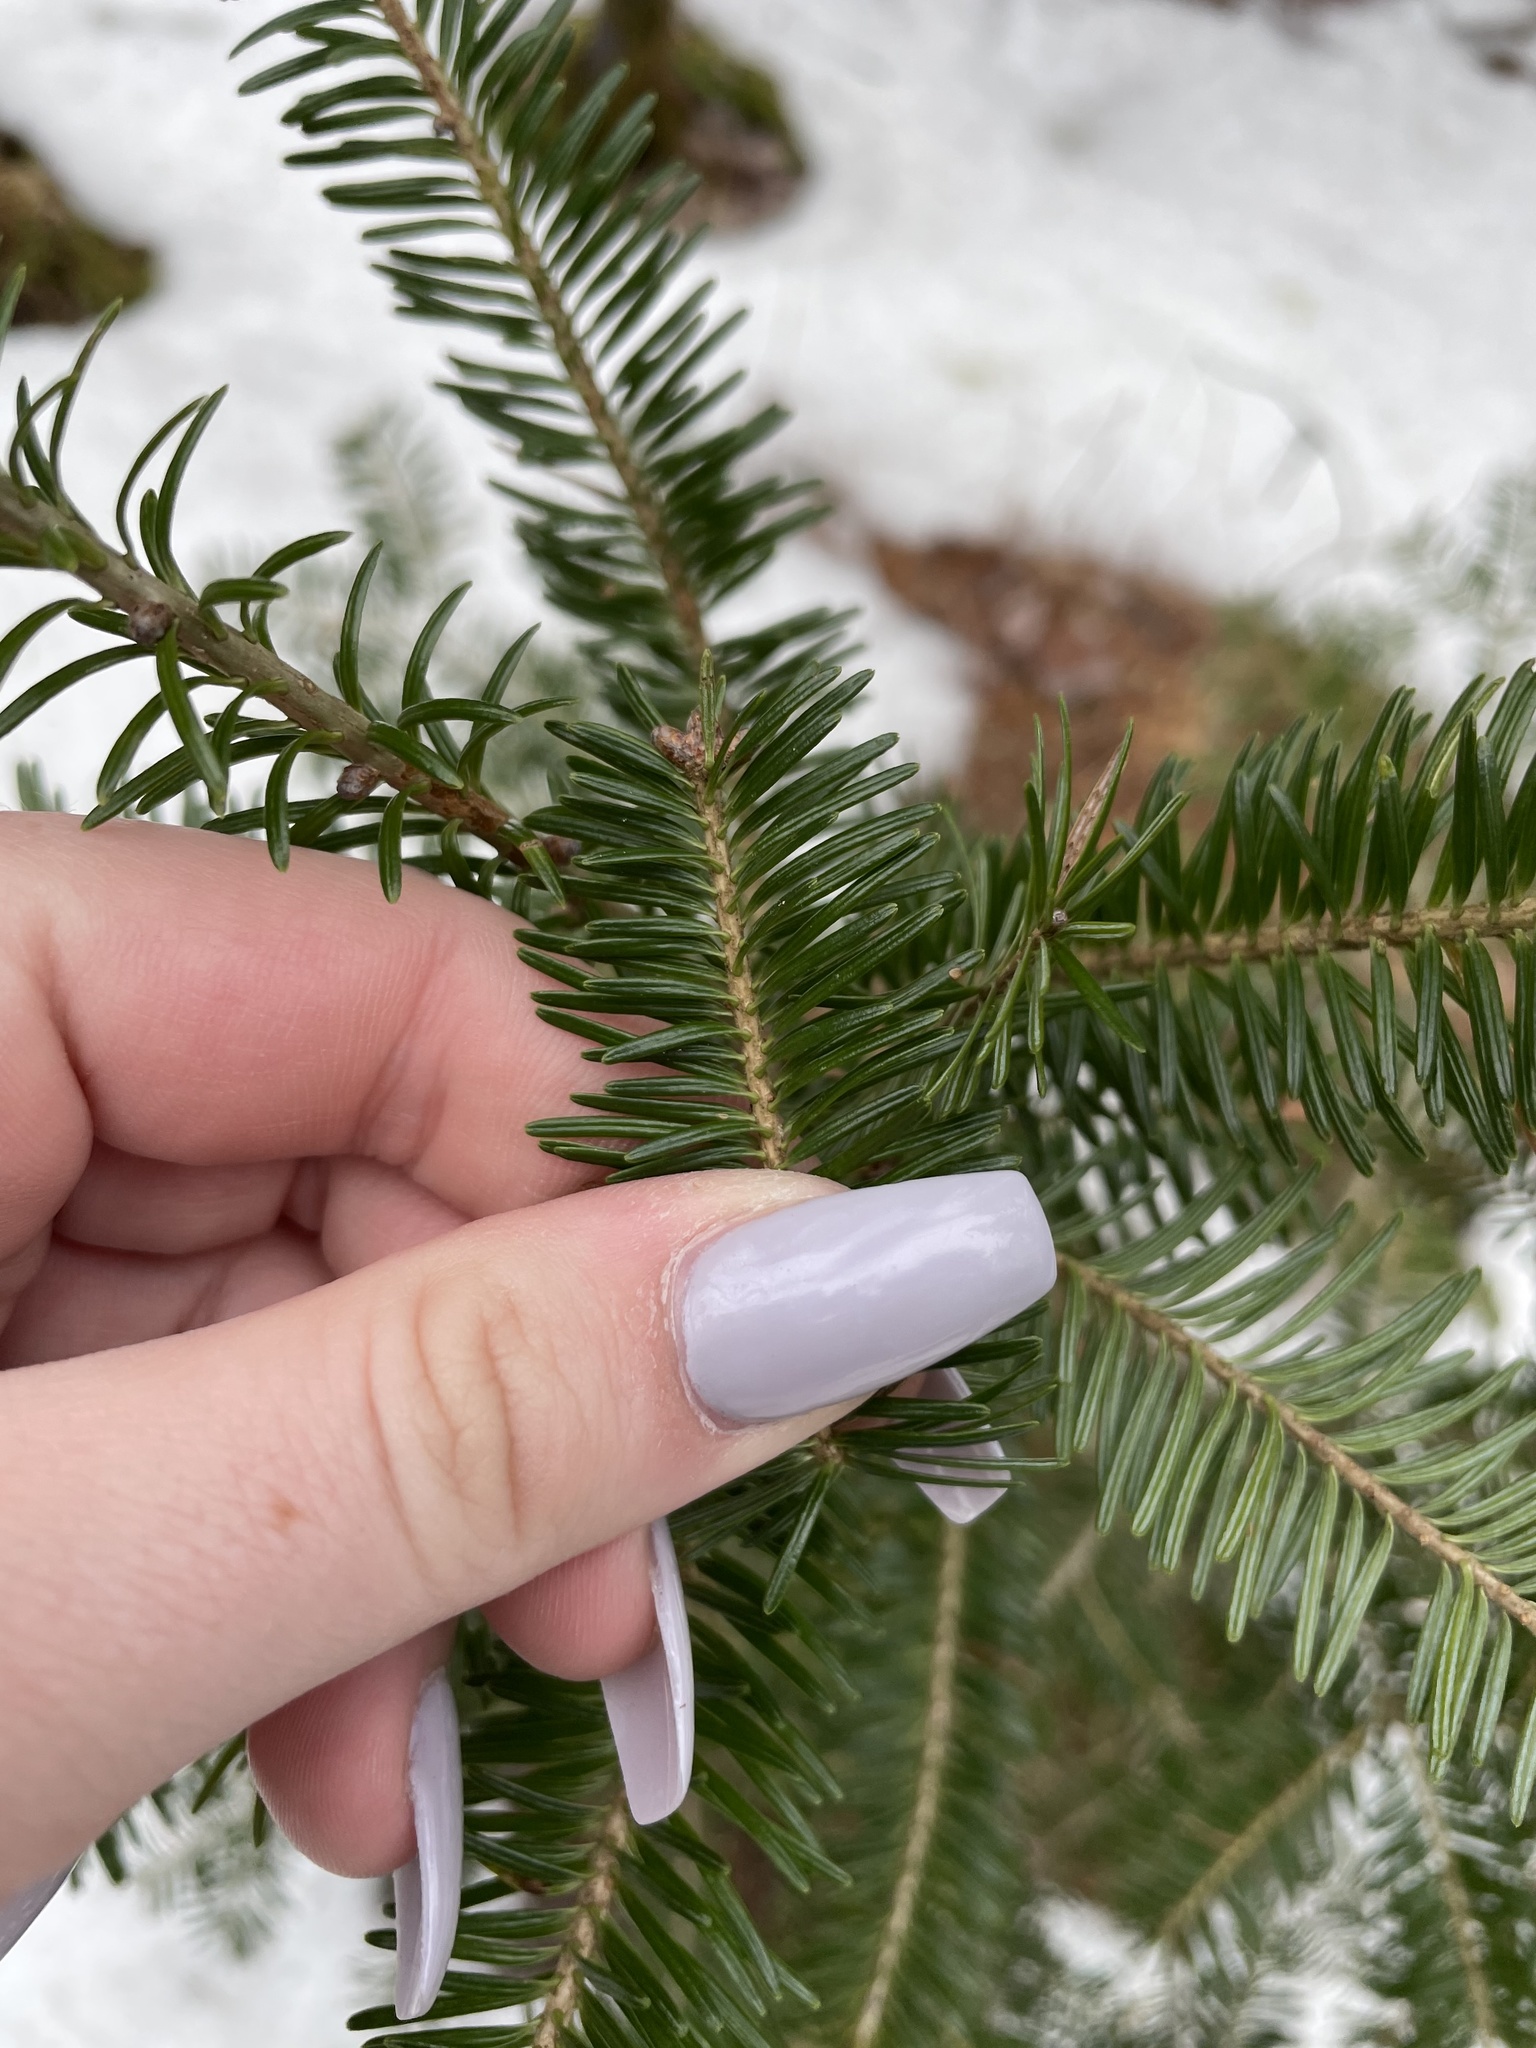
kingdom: Plantae
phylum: Tracheophyta
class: Pinopsida
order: Pinales
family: Pinaceae
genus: Abies
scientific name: Abies balsamea
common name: Balsam fir
